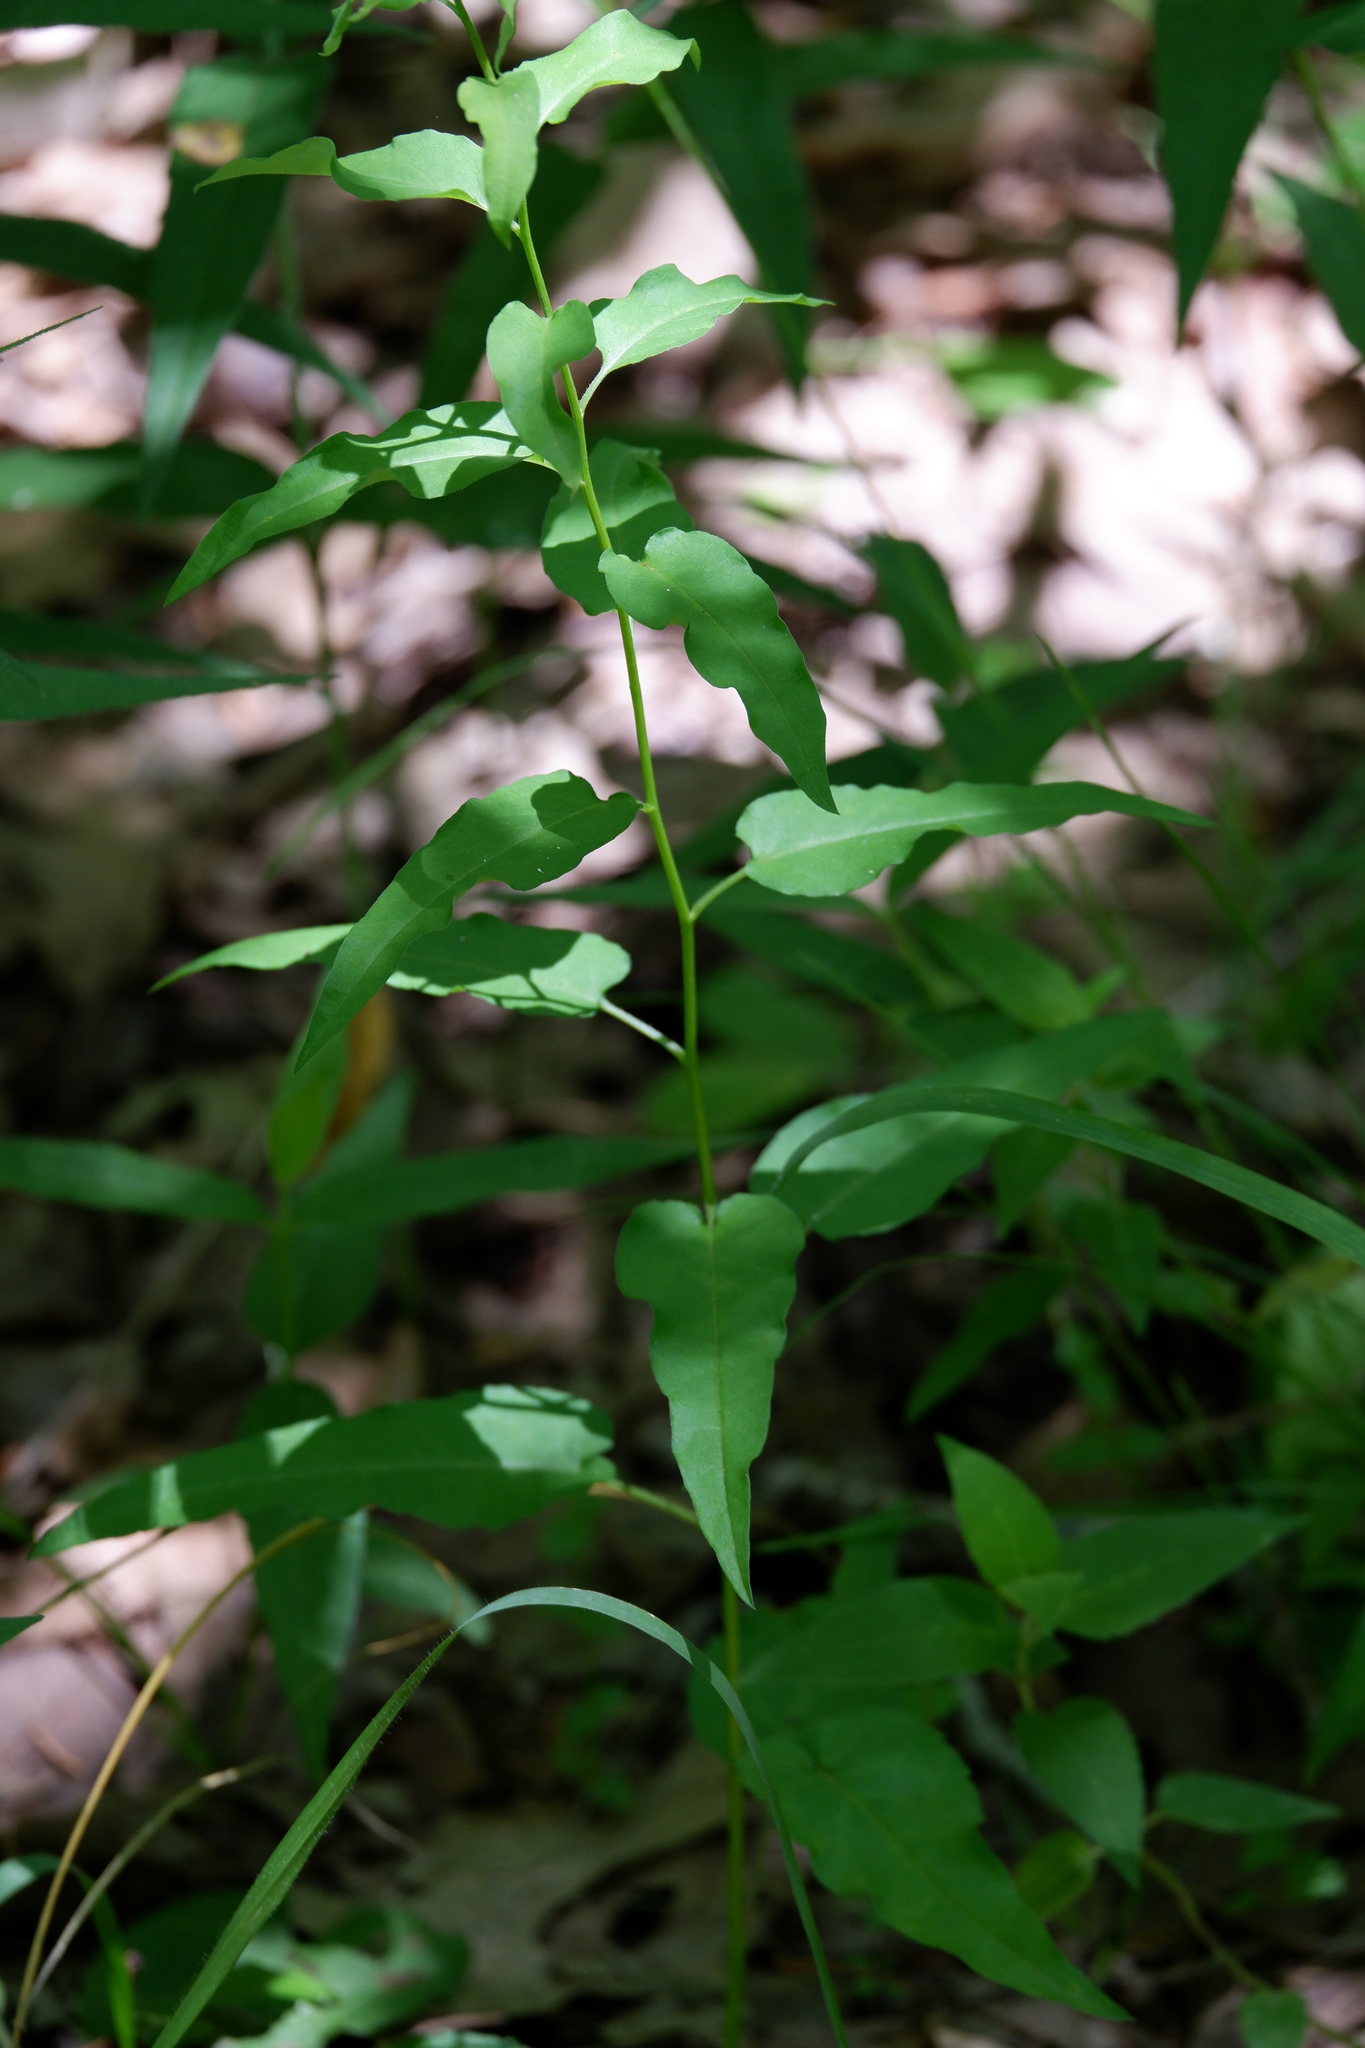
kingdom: Plantae
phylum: Tracheophyta
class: Magnoliopsida
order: Asterales
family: Asteraceae
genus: Symphyotrichum
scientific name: Symphyotrichum shortii
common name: Short's aster
